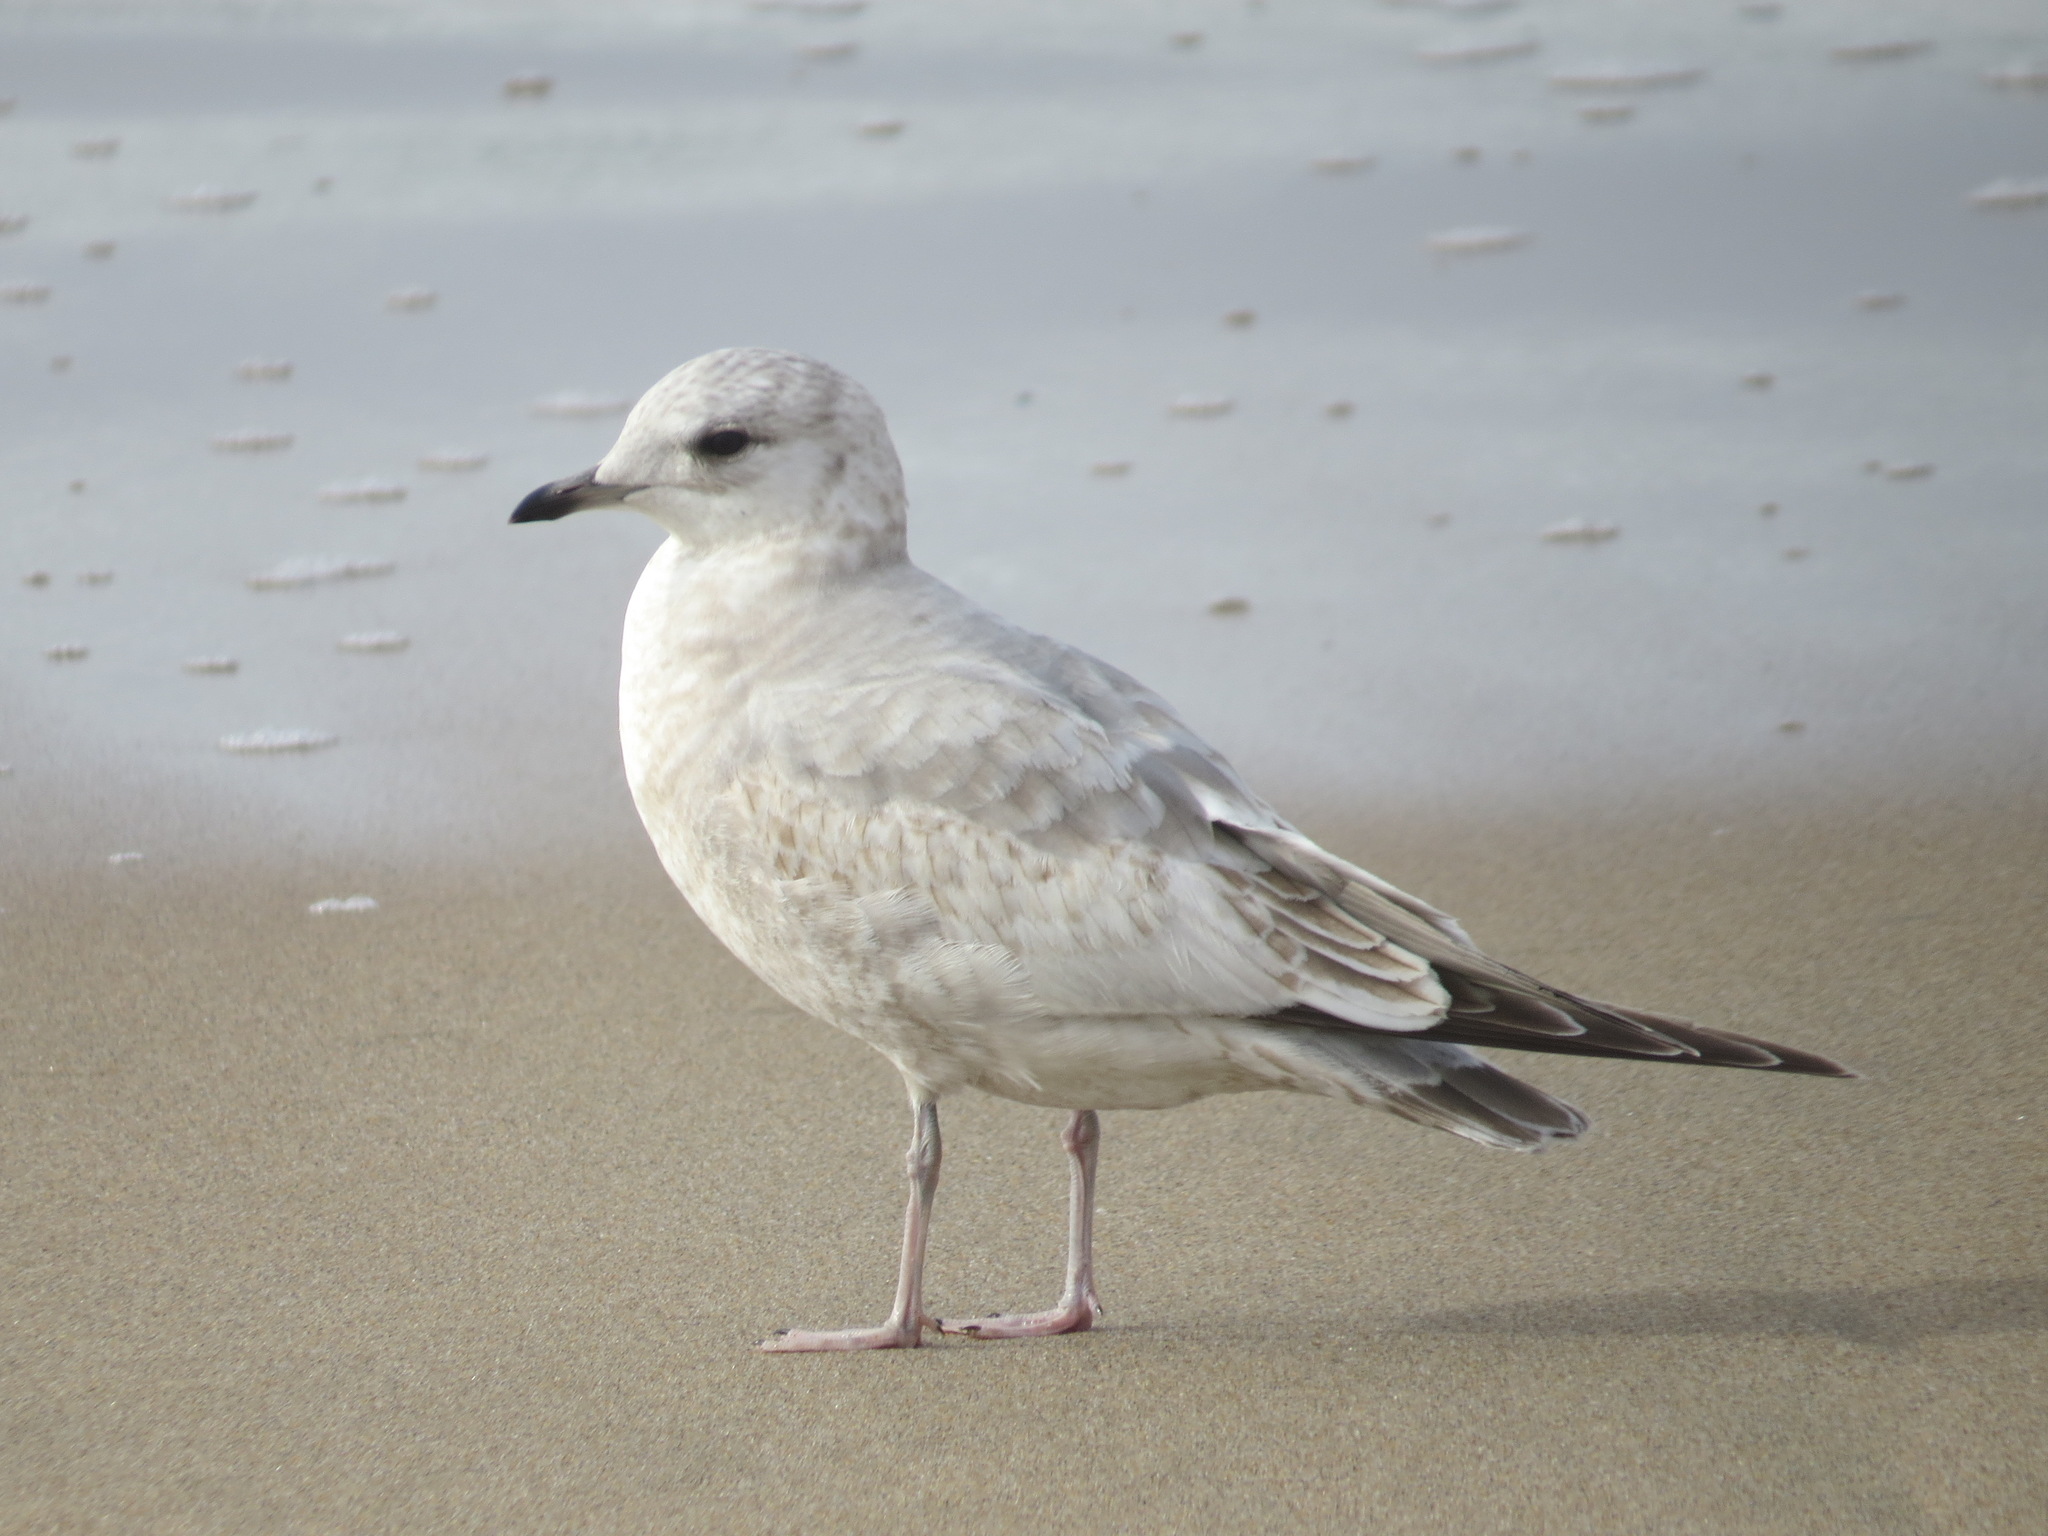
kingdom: Animalia
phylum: Chordata
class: Aves
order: Charadriiformes
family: Laridae
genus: Larus
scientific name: Larus brachyrhynchus
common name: Short-billed gull
